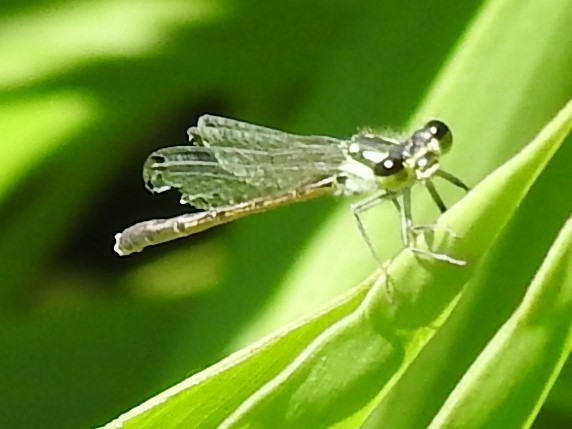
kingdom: Animalia
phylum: Arthropoda
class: Insecta
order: Odonata
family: Coenagrionidae
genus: Ischnura
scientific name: Ischnura posita
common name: Fragile forktail
